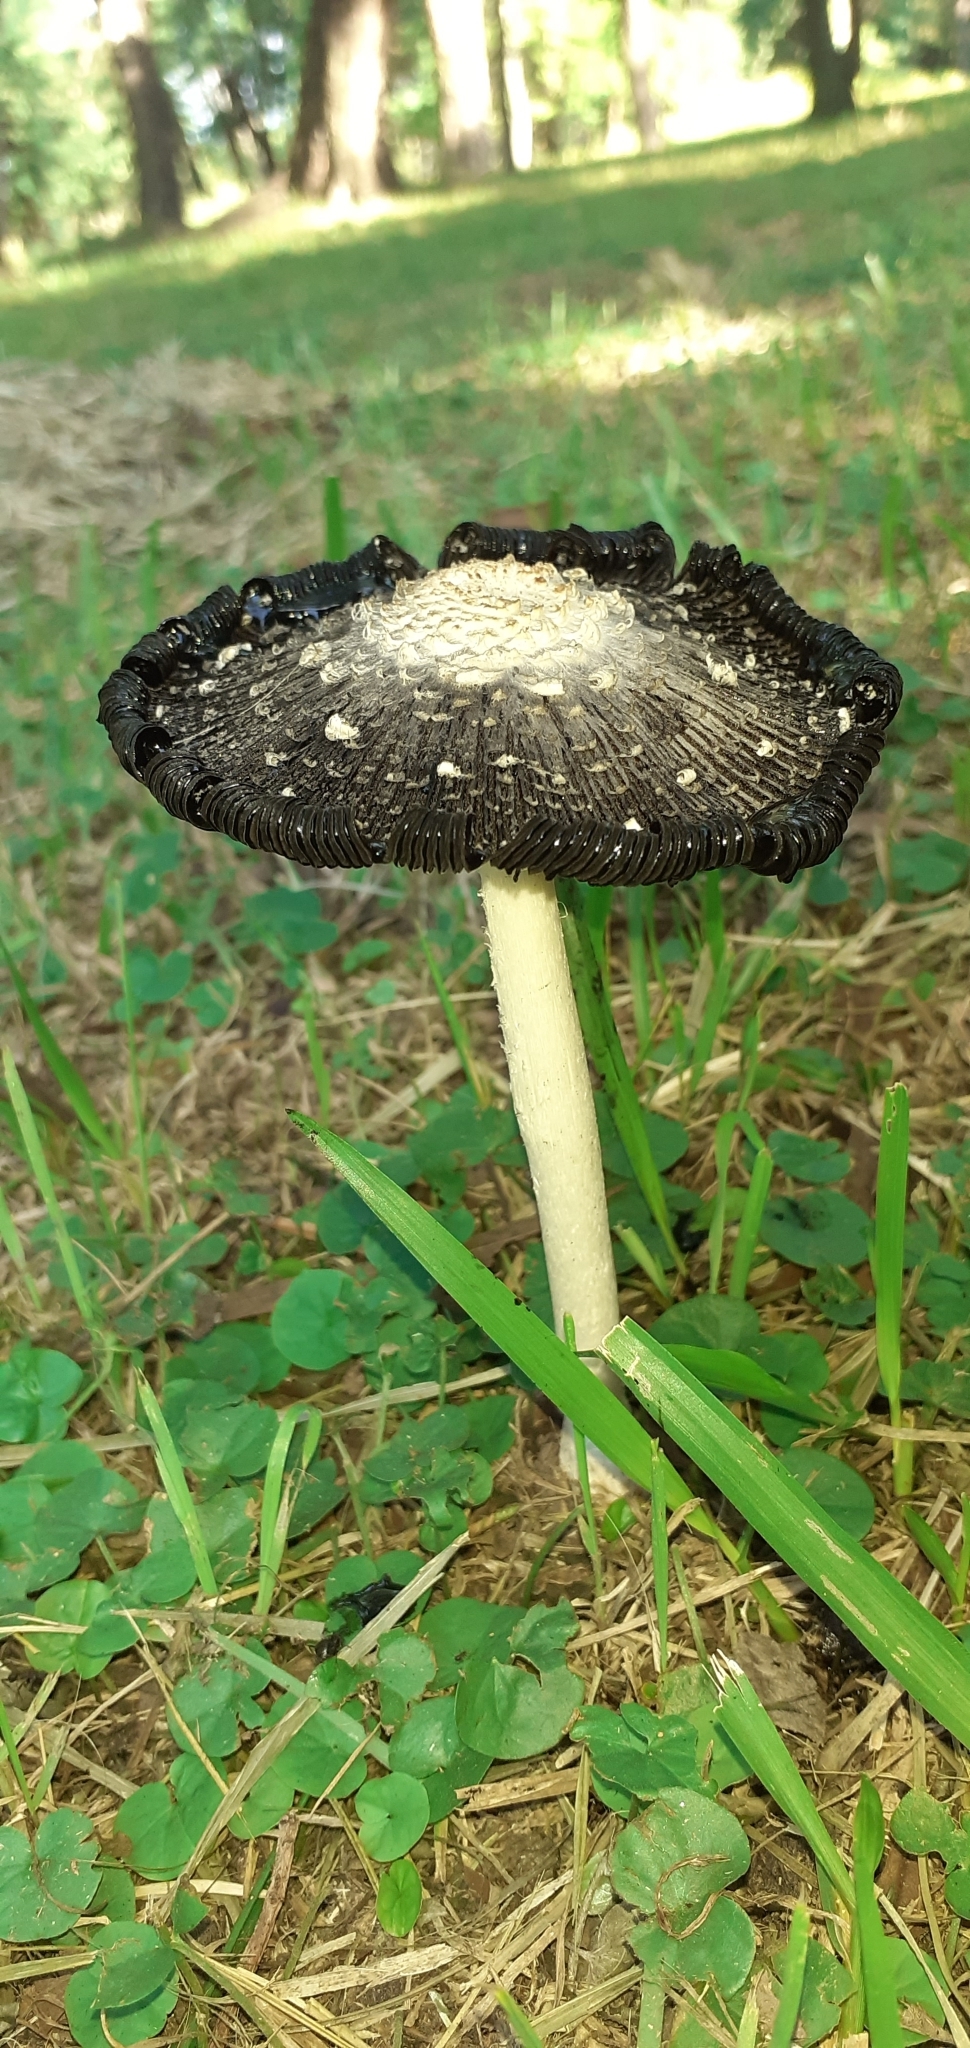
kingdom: Fungi
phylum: Basidiomycota
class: Agaricomycetes
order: Agaricales
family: Agaricaceae
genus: Coprinus
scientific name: Coprinus comatus
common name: Lawyer's wig
